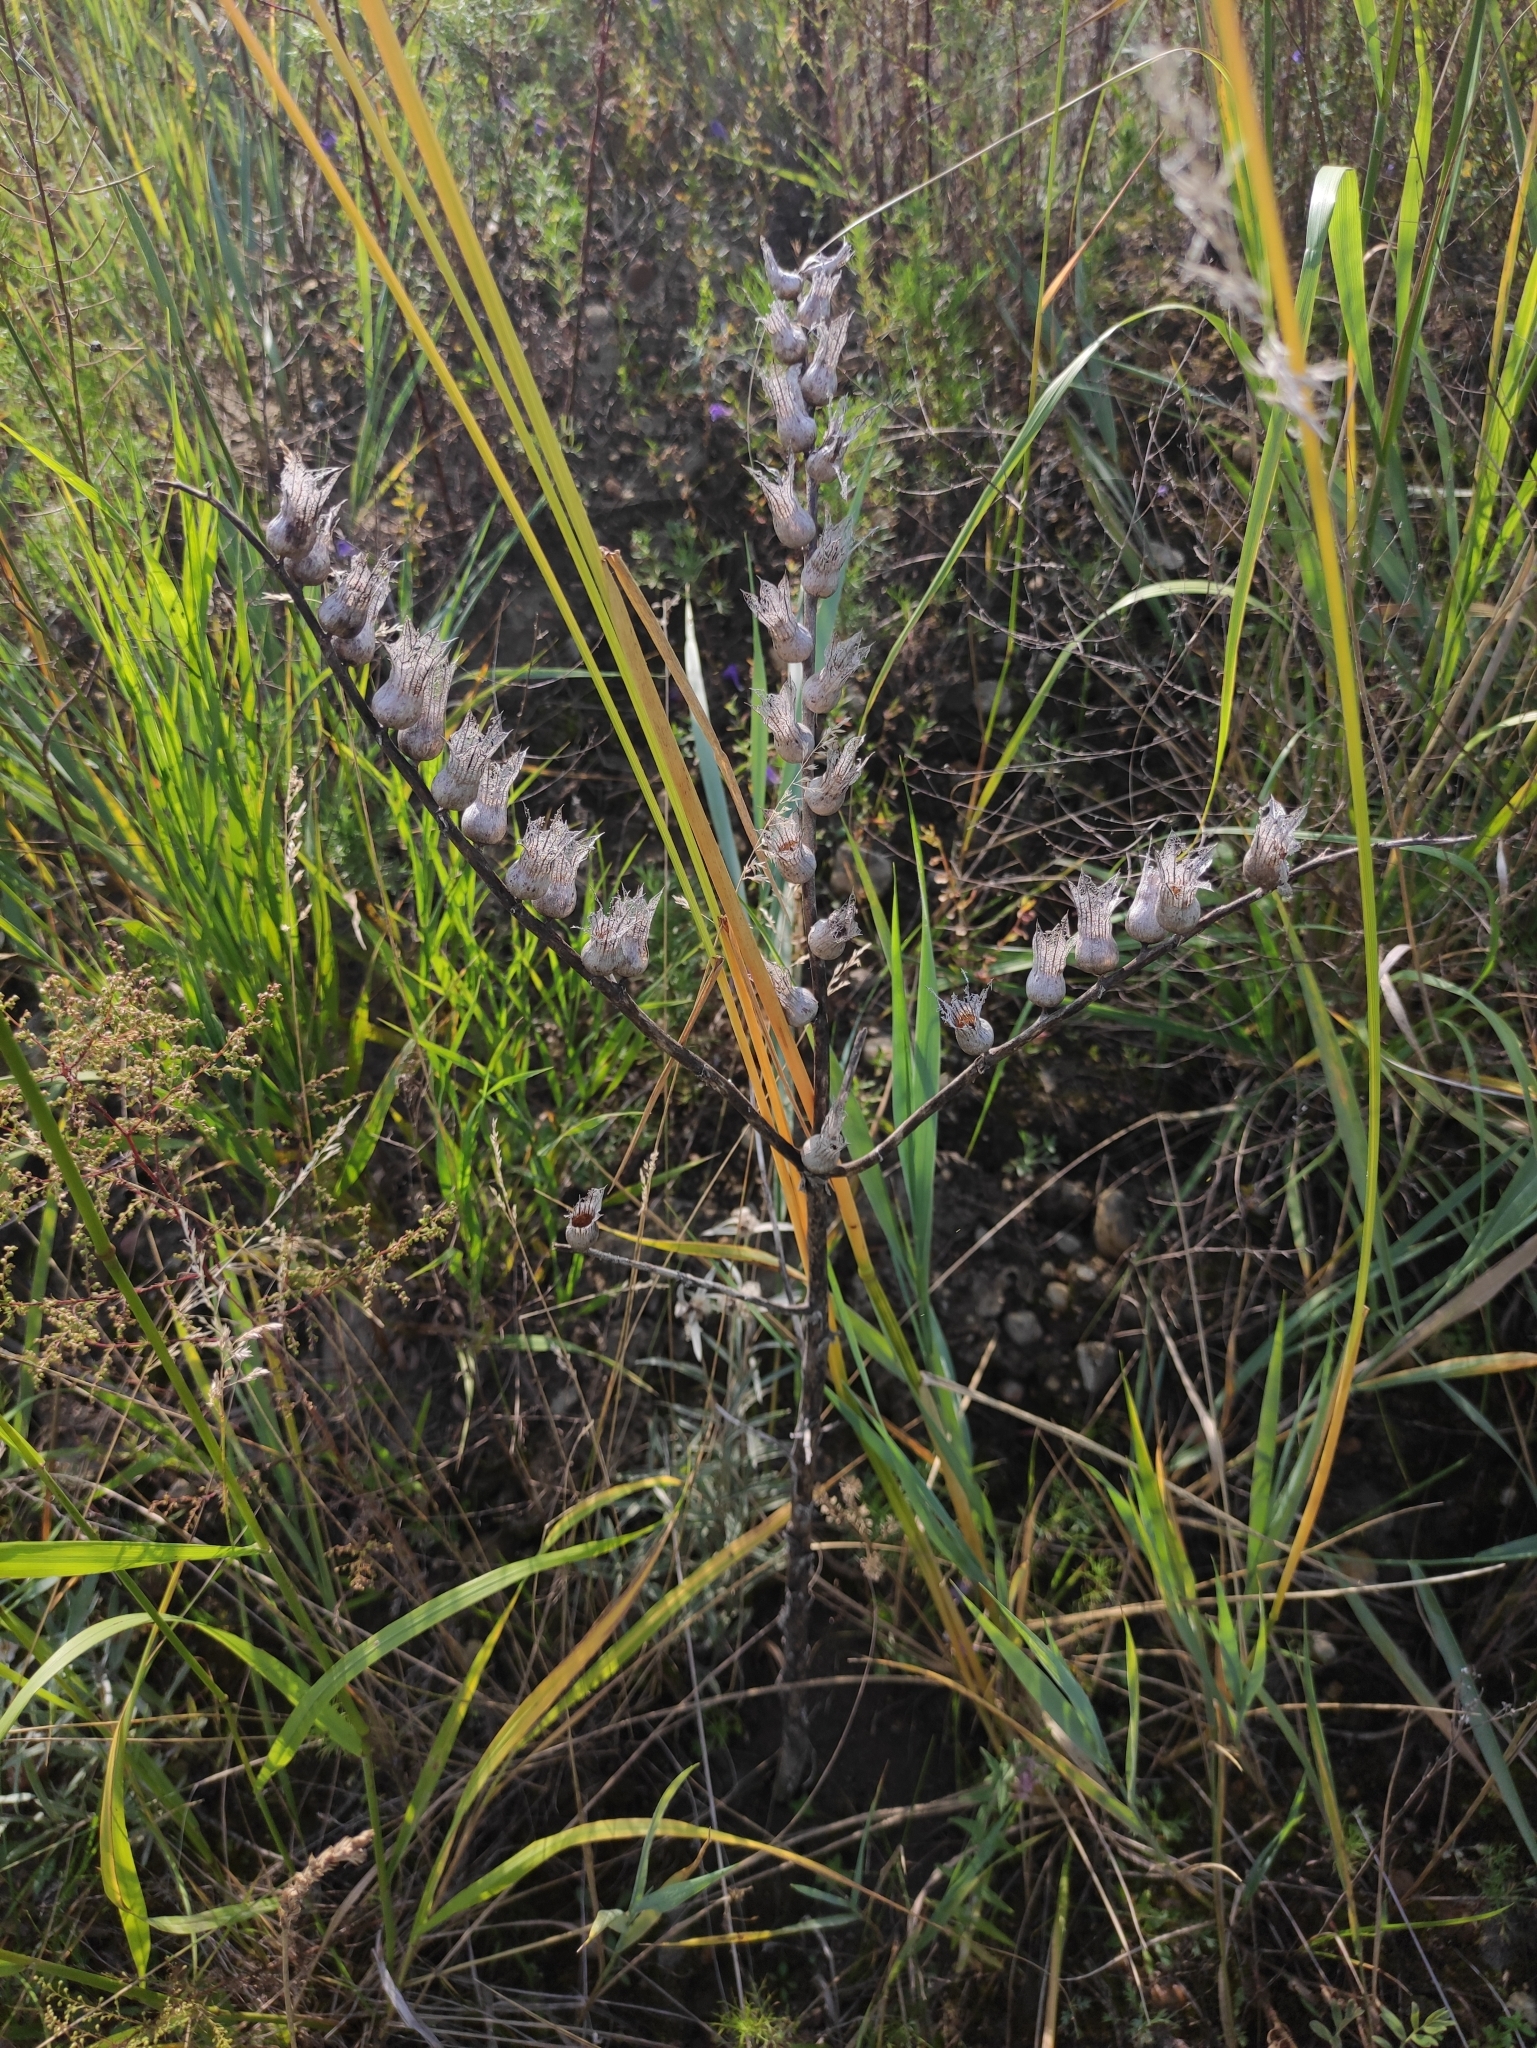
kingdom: Plantae
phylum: Tracheophyta
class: Magnoliopsida
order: Solanales
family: Solanaceae
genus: Hyoscyamus
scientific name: Hyoscyamus niger
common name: Henbane
